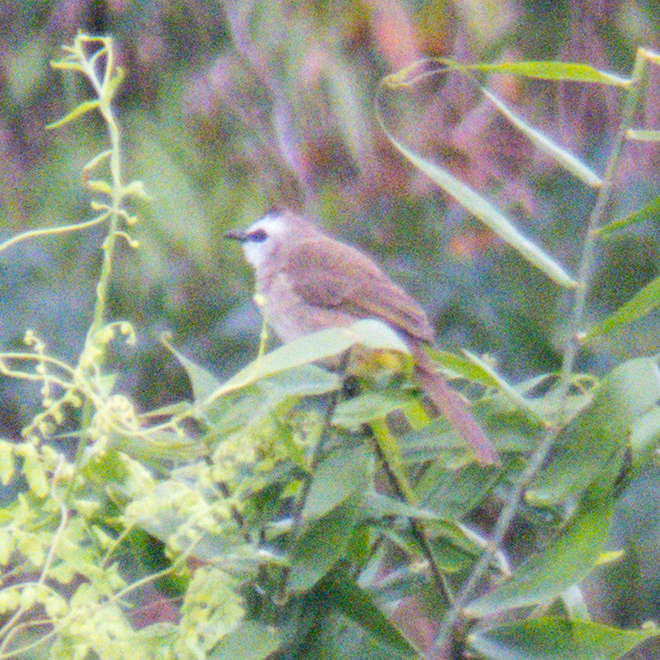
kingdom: Animalia
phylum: Chordata
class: Aves
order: Passeriformes
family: Pycnonotidae
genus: Pycnonotus
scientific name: Pycnonotus goiavier
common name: Yellow-vented bulbul
